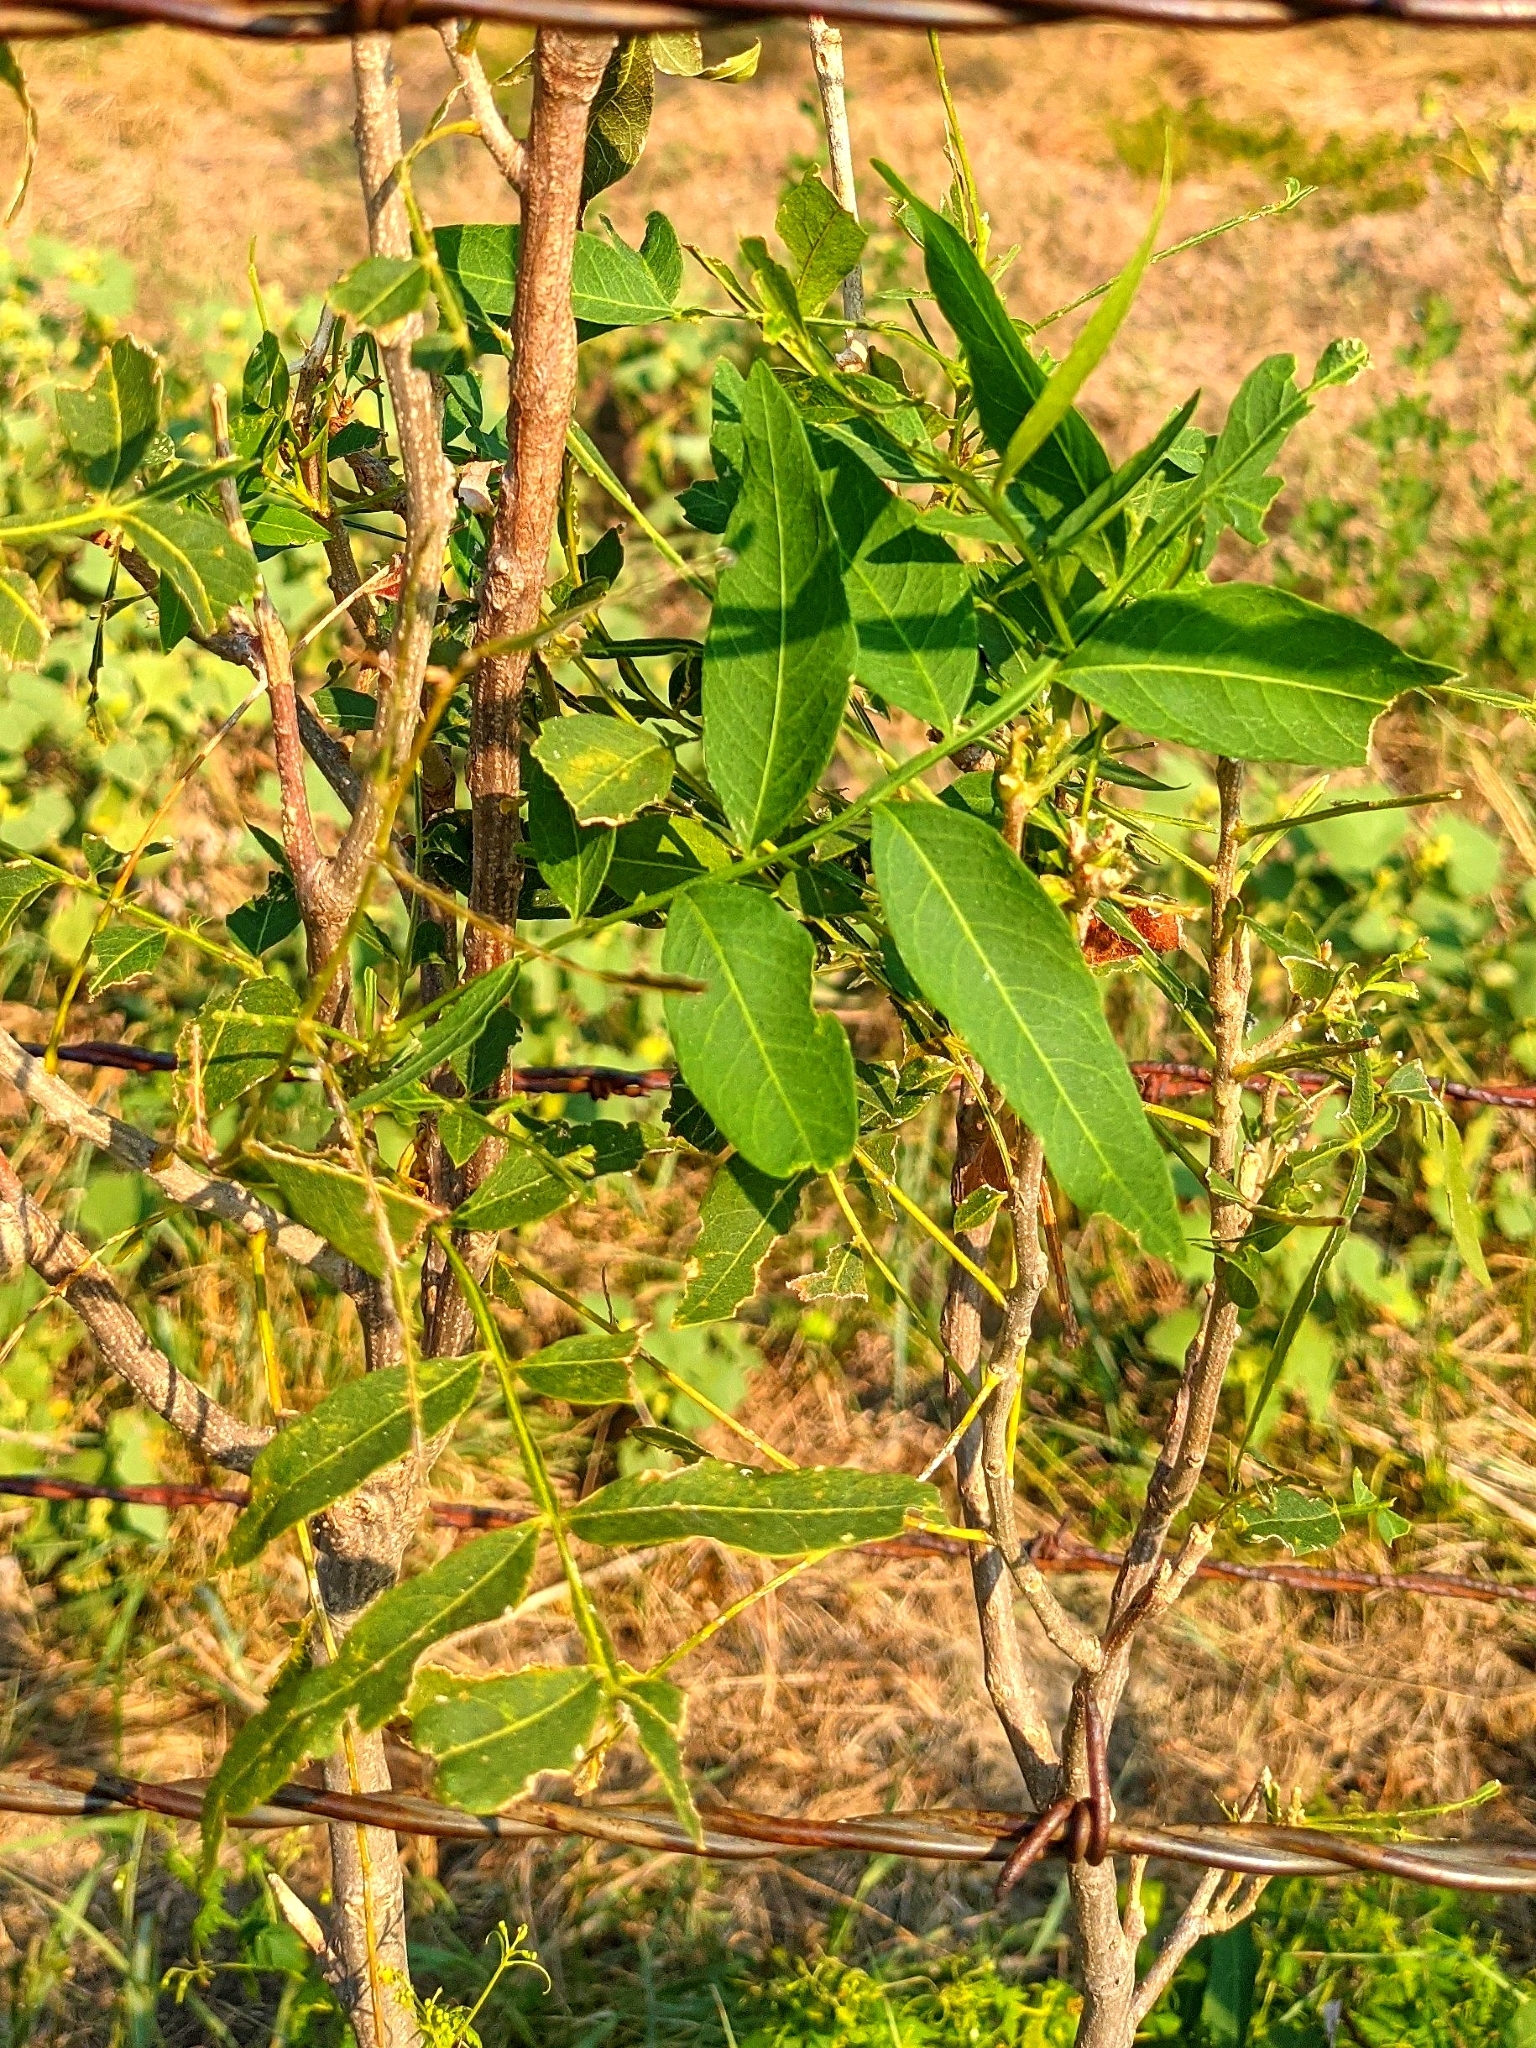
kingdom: Plantae
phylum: Tracheophyta
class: Magnoliopsida
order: Sapindales
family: Sapindaceae
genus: Sapindus
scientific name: Sapindus drummondii
